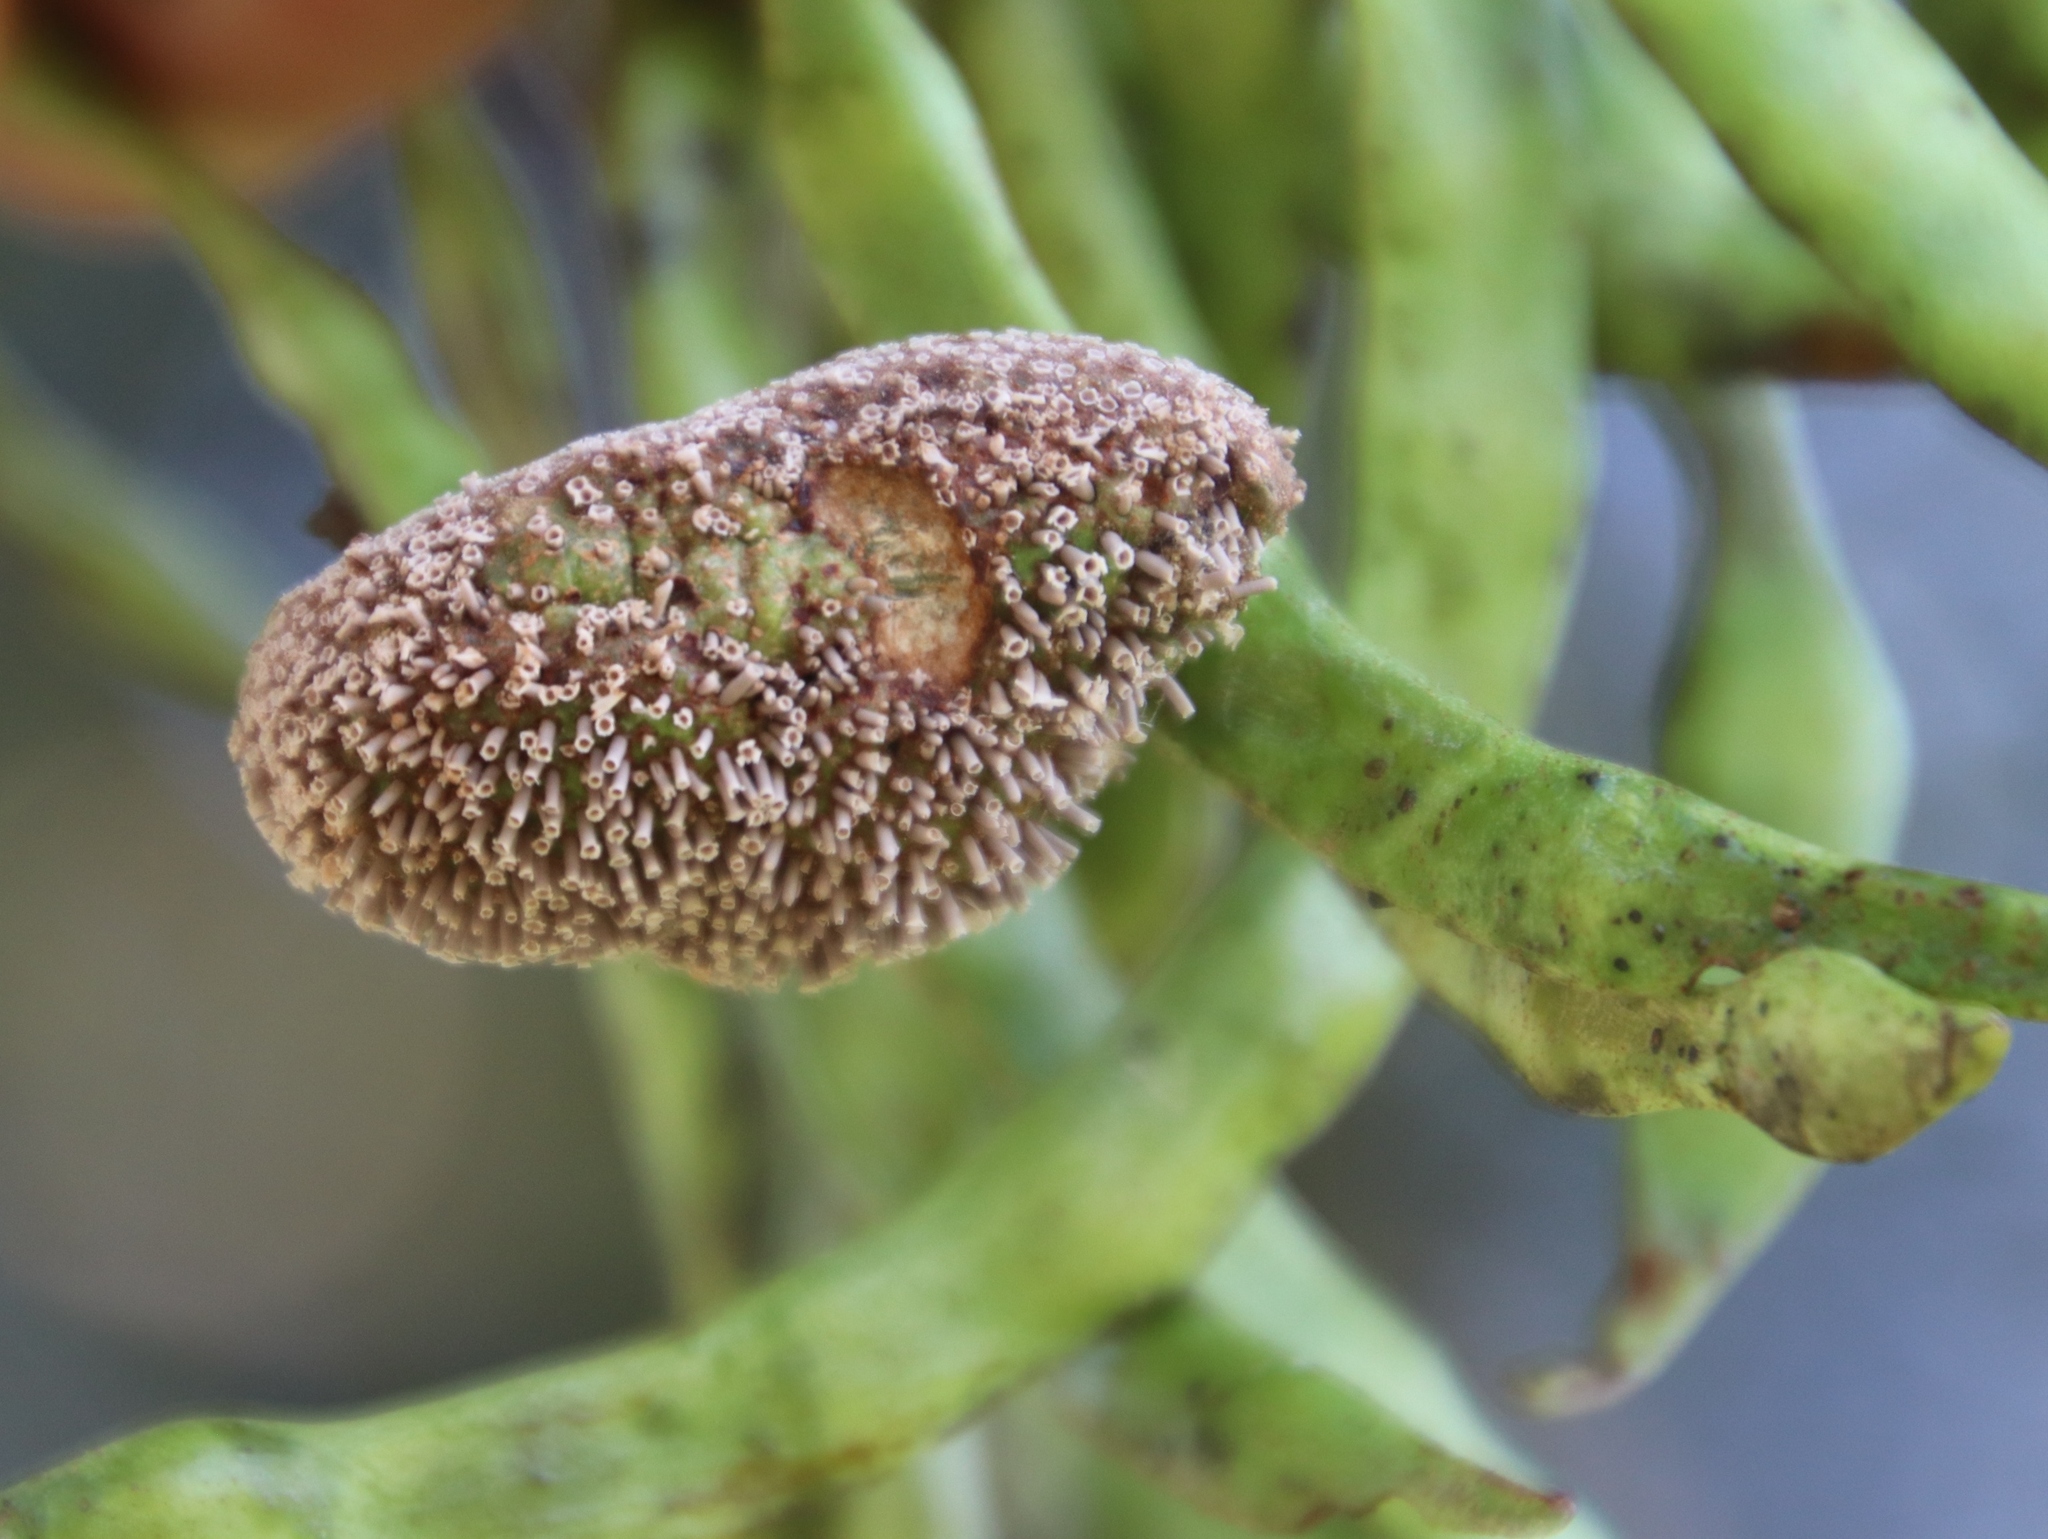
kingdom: Plantae
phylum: Tracheophyta
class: Magnoliopsida
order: Fabales
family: Fabaceae
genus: Vachellia
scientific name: Vachellia karroo
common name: Sweet thorn
